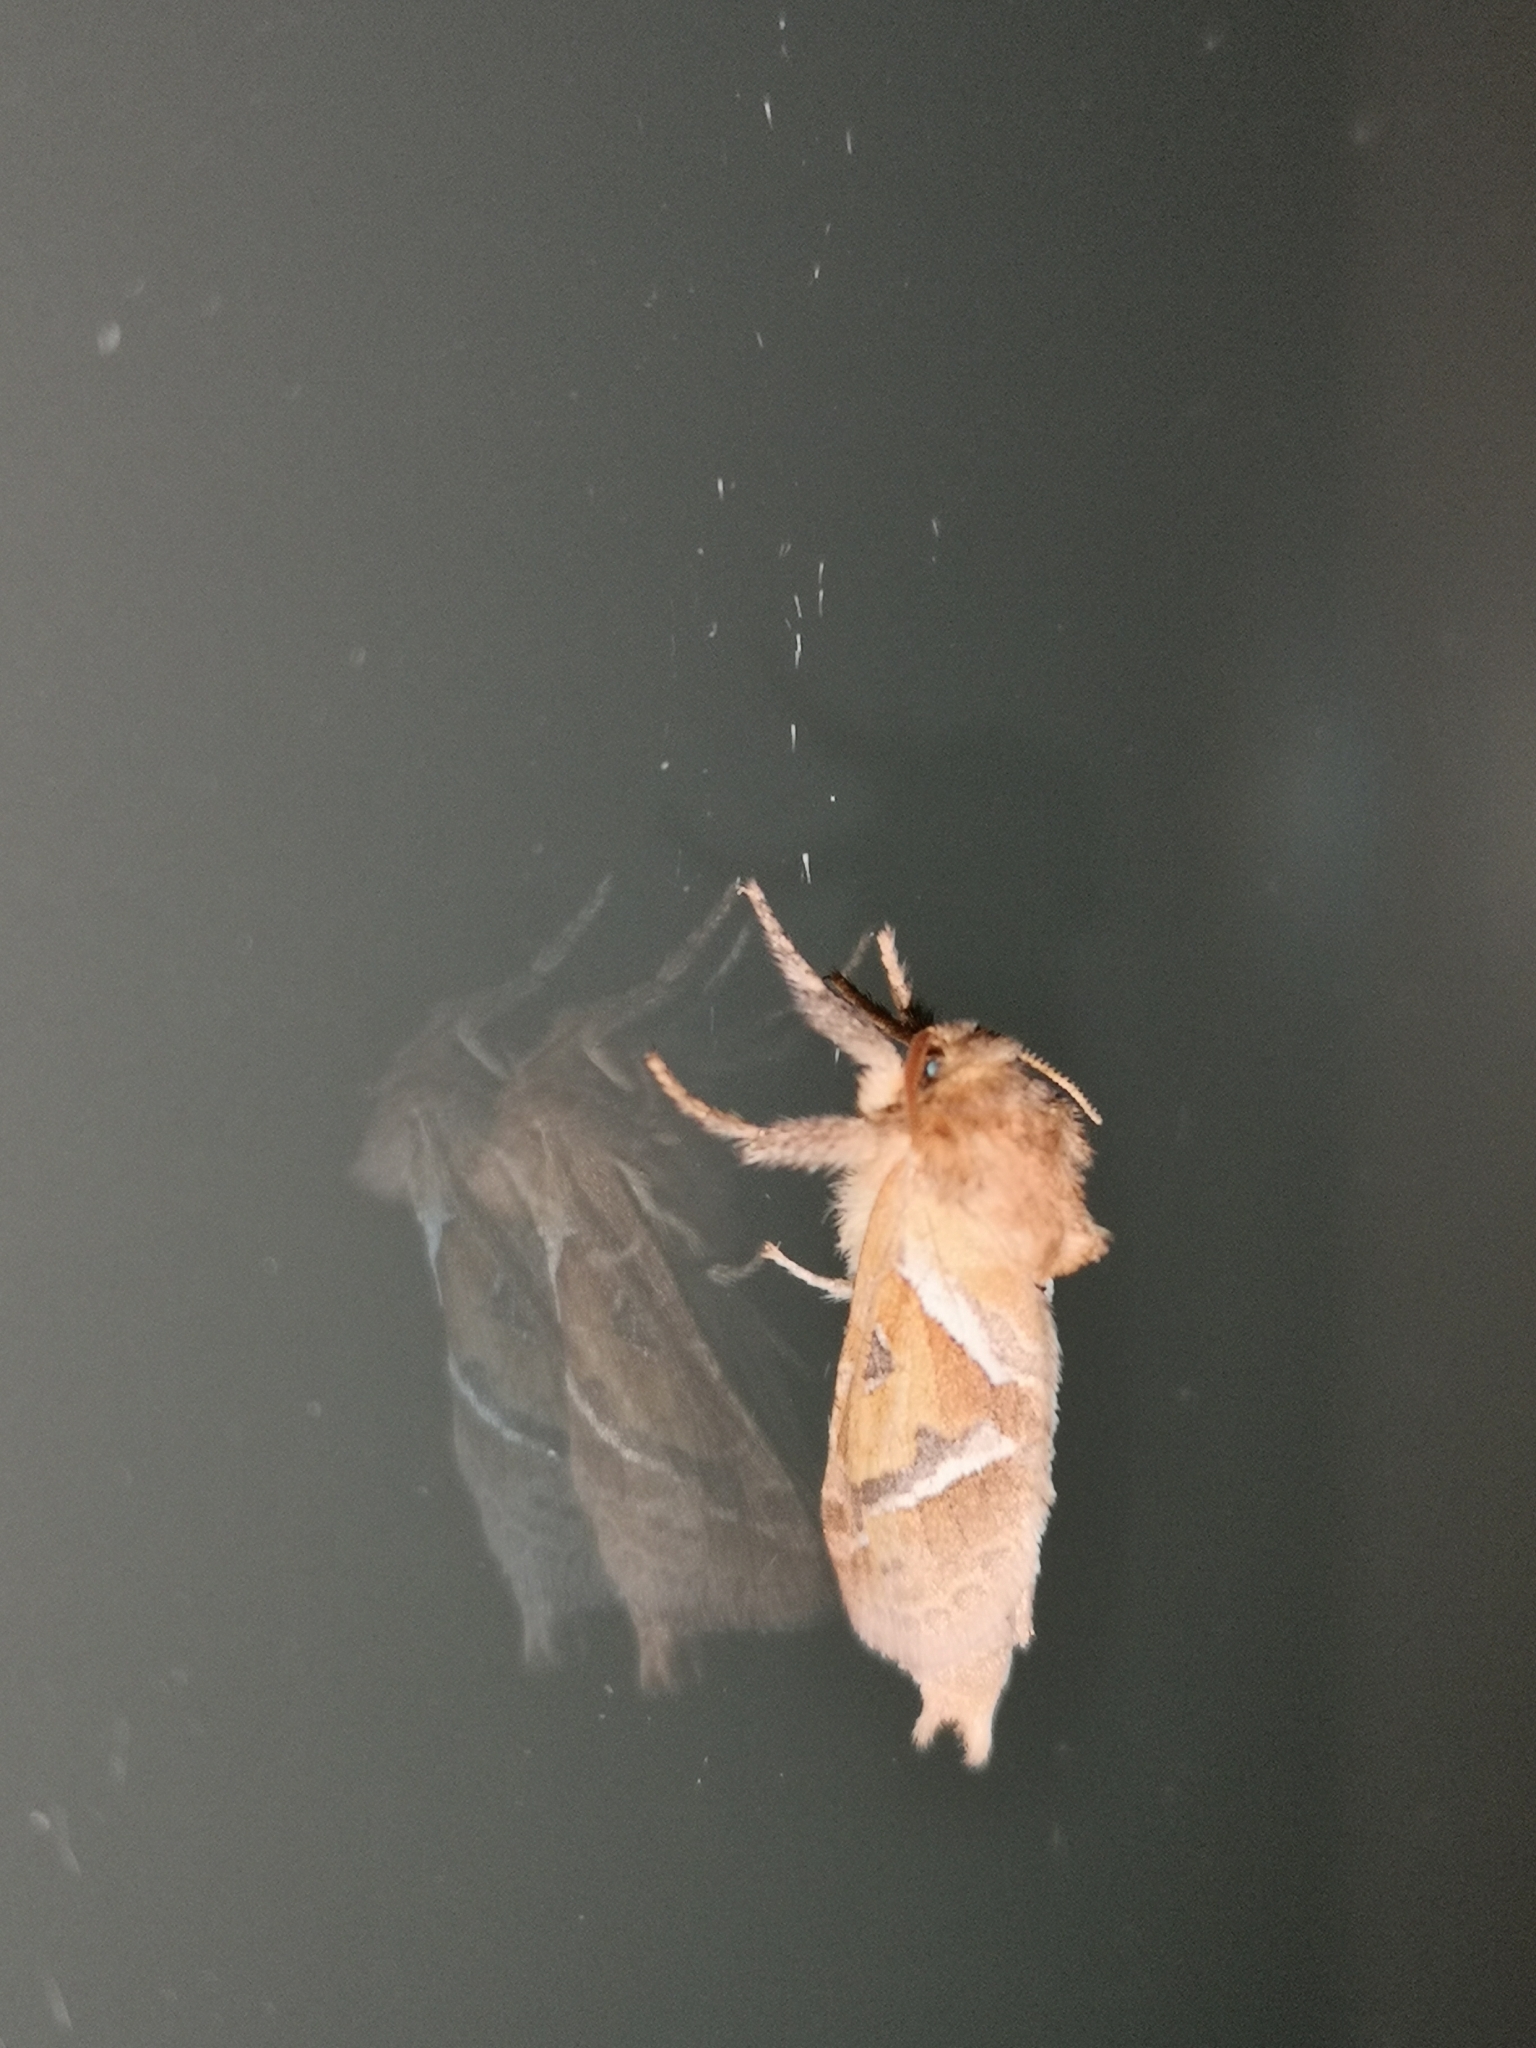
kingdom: Animalia
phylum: Arthropoda
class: Insecta
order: Lepidoptera
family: Hepialidae
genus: Triodia
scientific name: Triodia sylvina
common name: Orange swift
